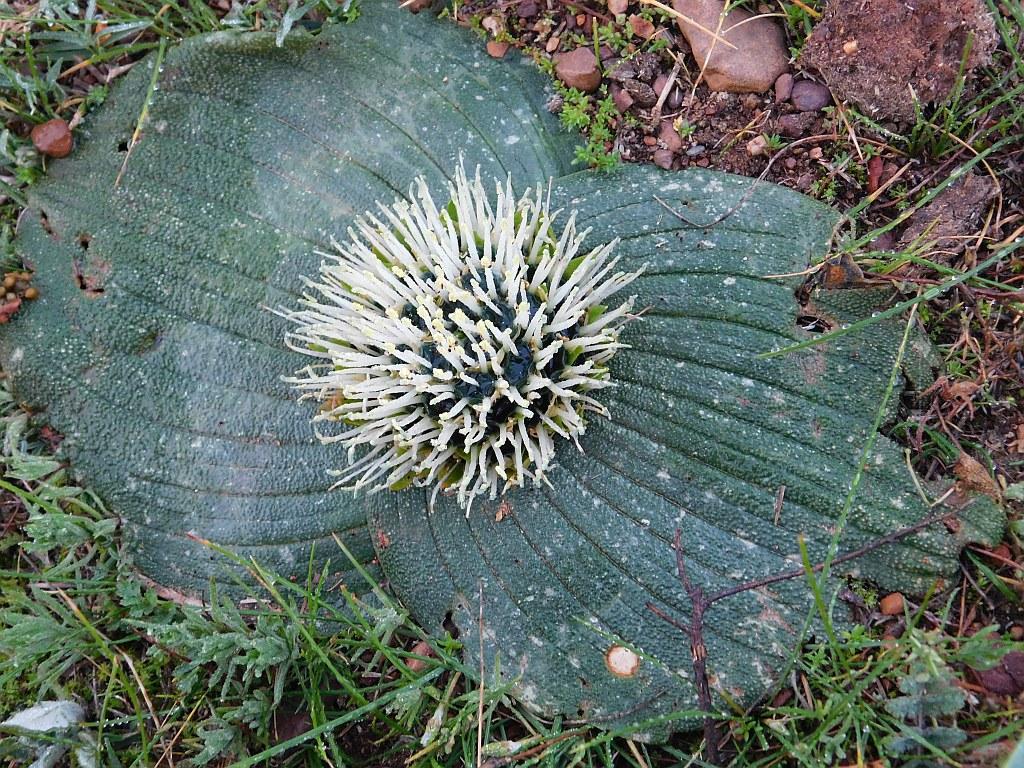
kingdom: Plantae
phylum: Tracheophyta
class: Liliopsida
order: Asparagales
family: Asparagaceae
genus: Massonia
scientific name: Massonia pustulata
